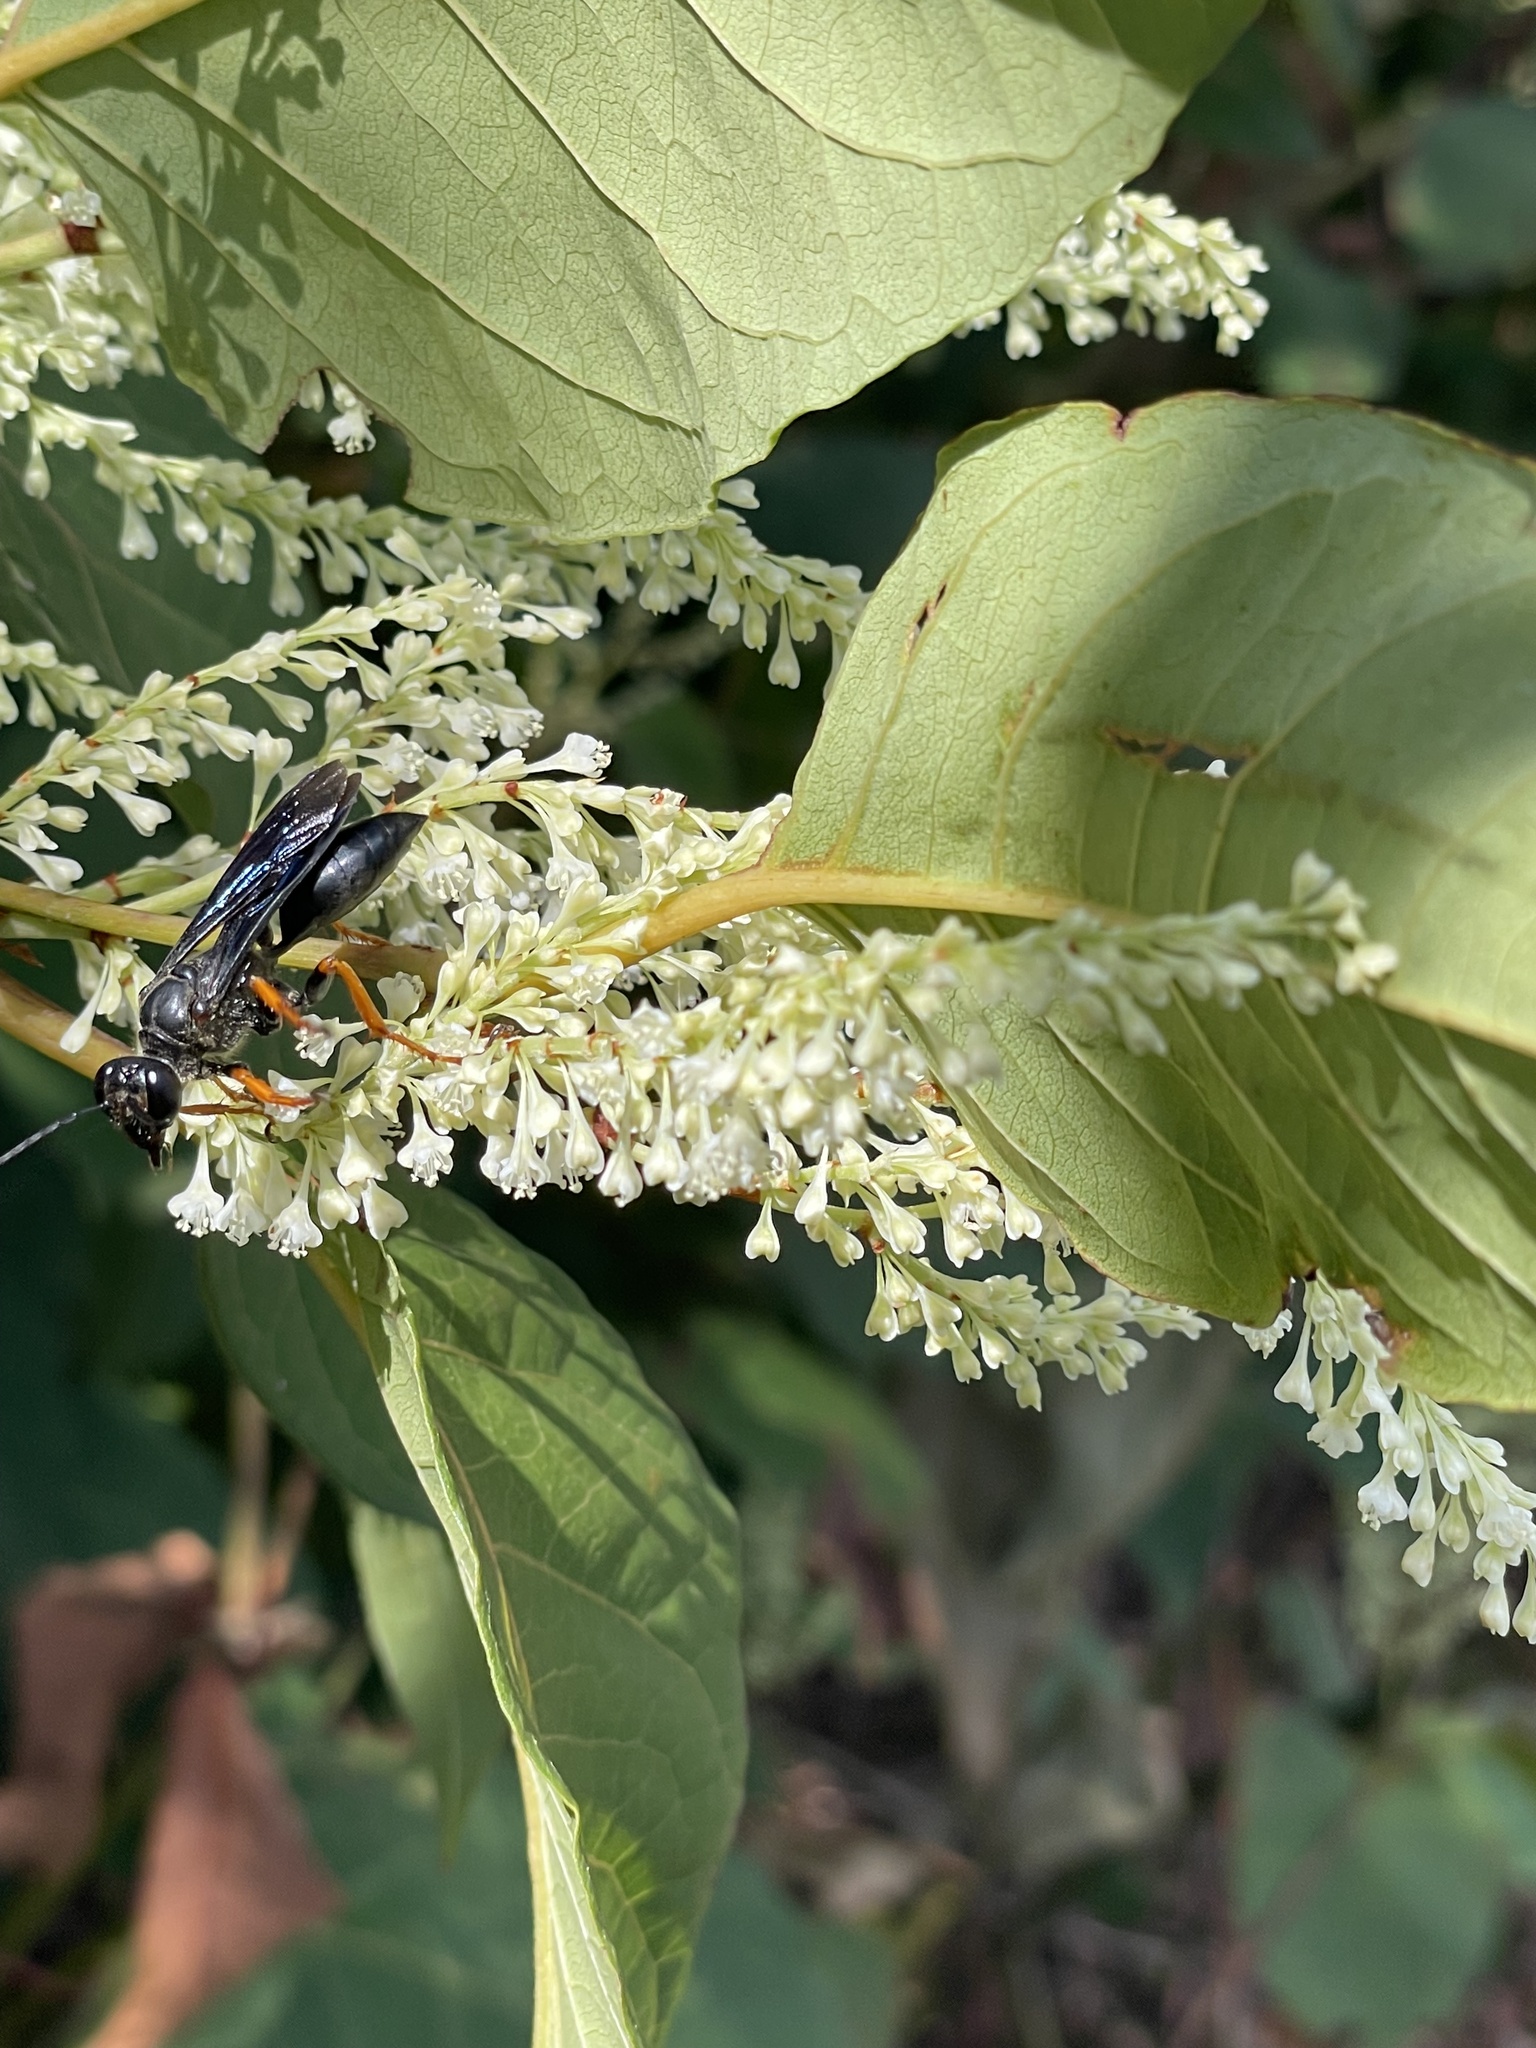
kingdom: Animalia
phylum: Arthropoda
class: Insecta
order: Hymenoptera
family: Sphecidae
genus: Sphex
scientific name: Sphex nudus
